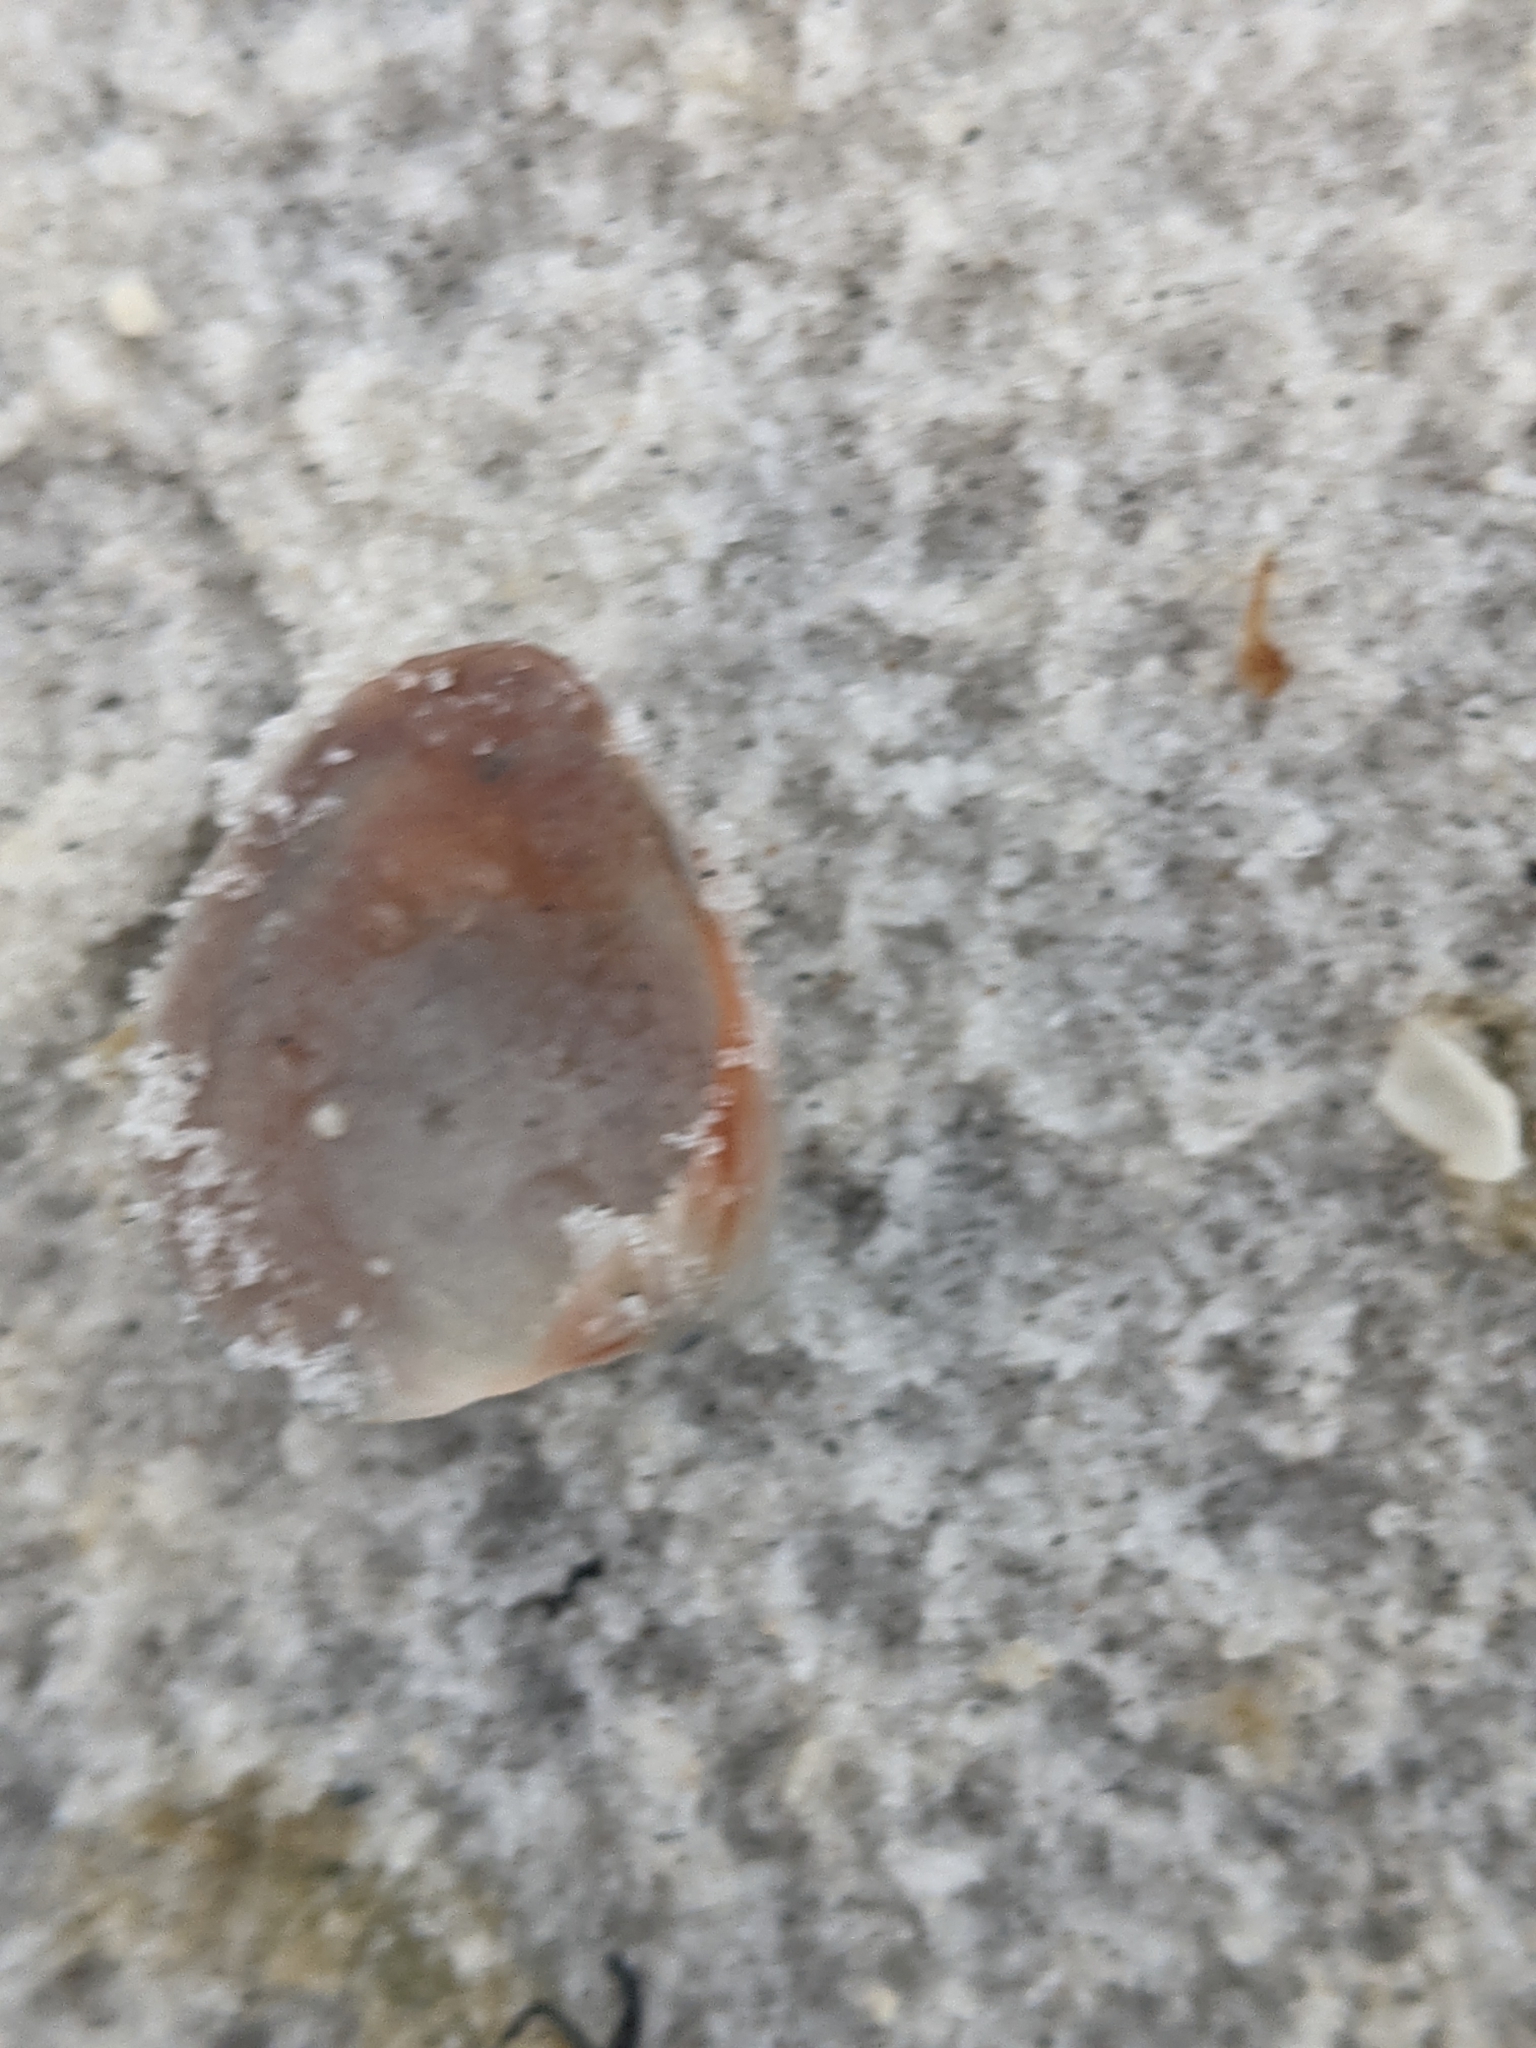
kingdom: Animalia
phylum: Mollusca
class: Bivalvia
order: Venerida
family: Veneridae
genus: Chione
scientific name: Chione elevata
